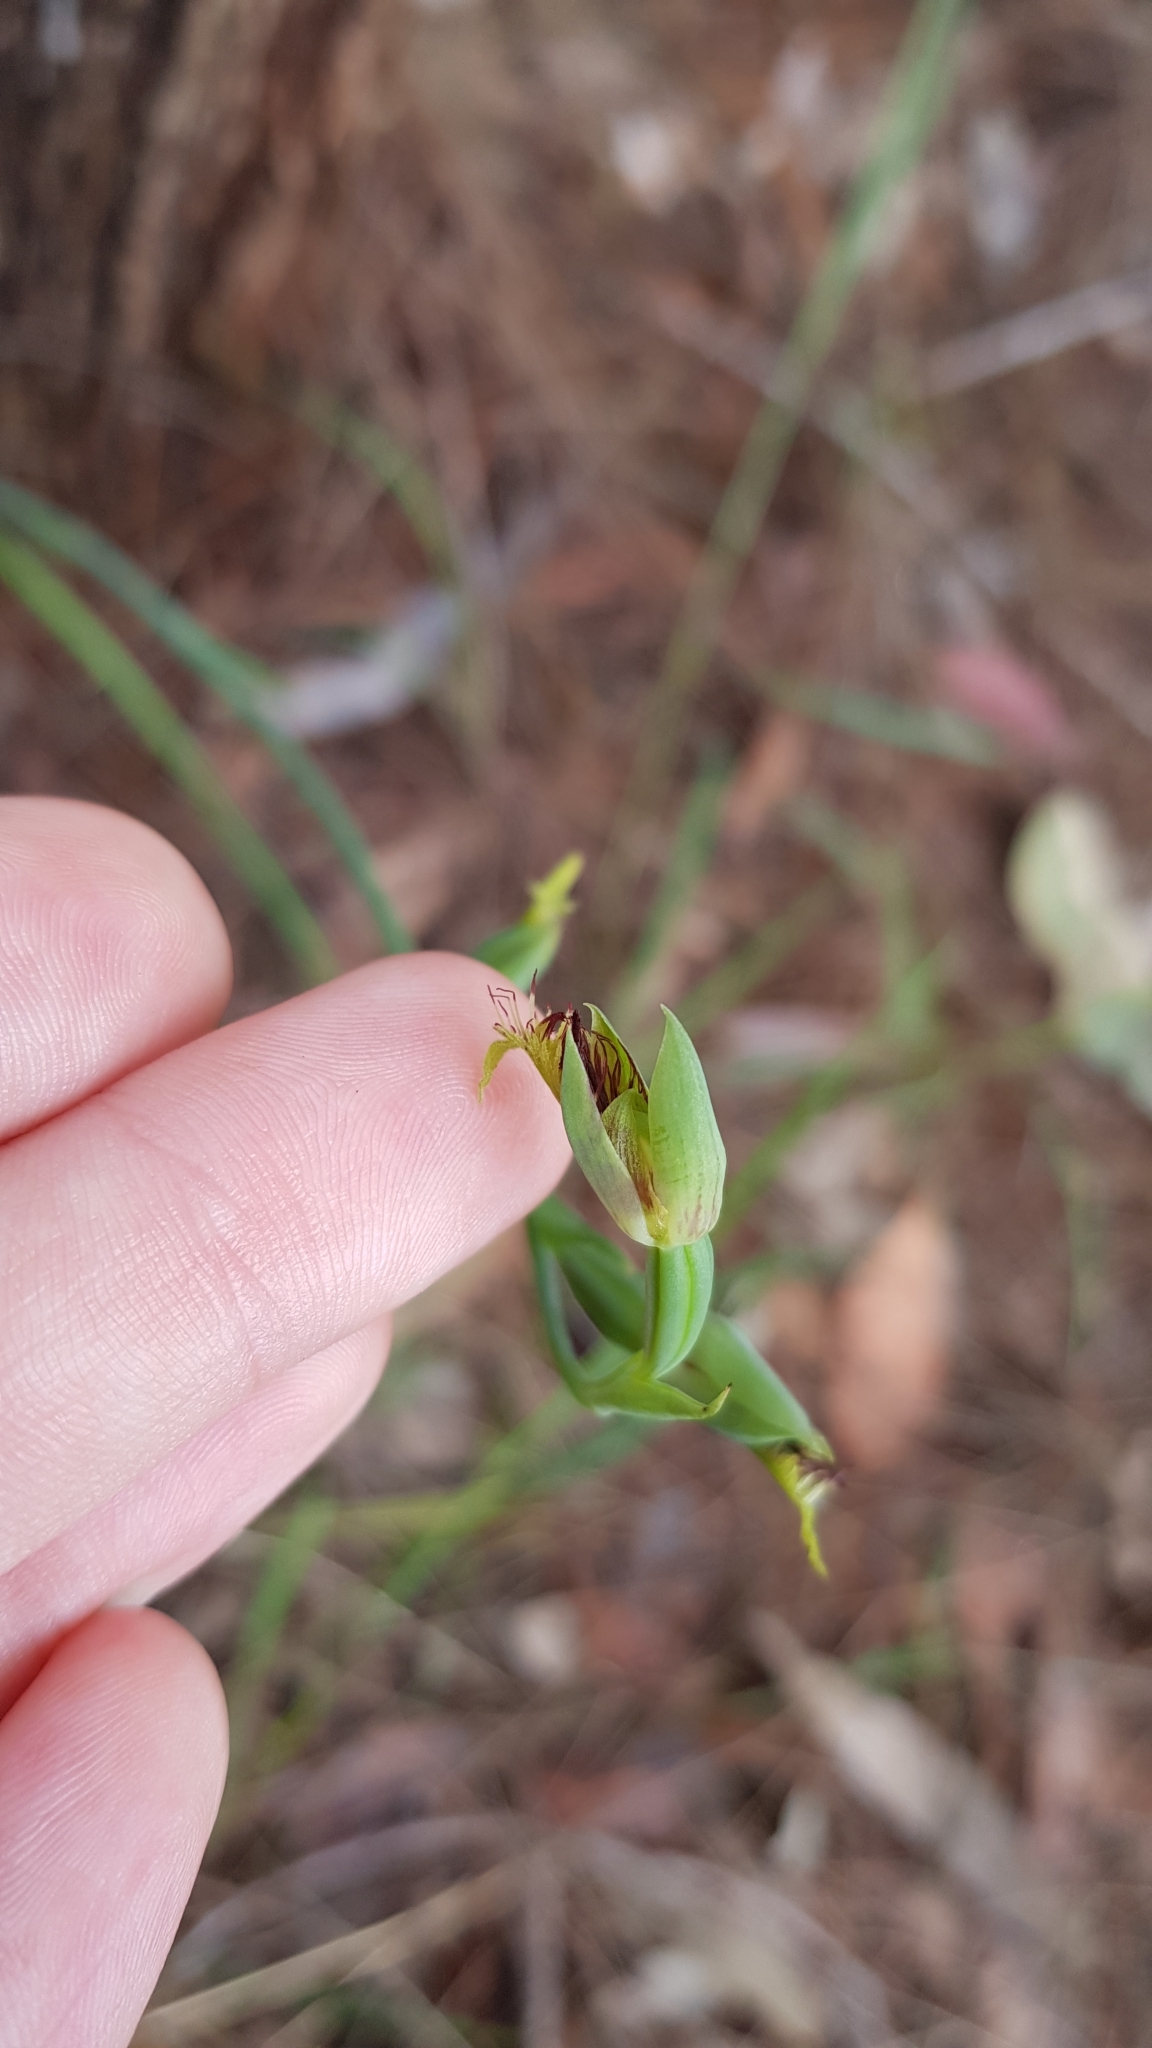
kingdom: Plantae
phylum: Tracheophyta
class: Liliopsida
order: Asparagales
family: Orchidaceae
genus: Calochilus
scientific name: Calochilus campestris
